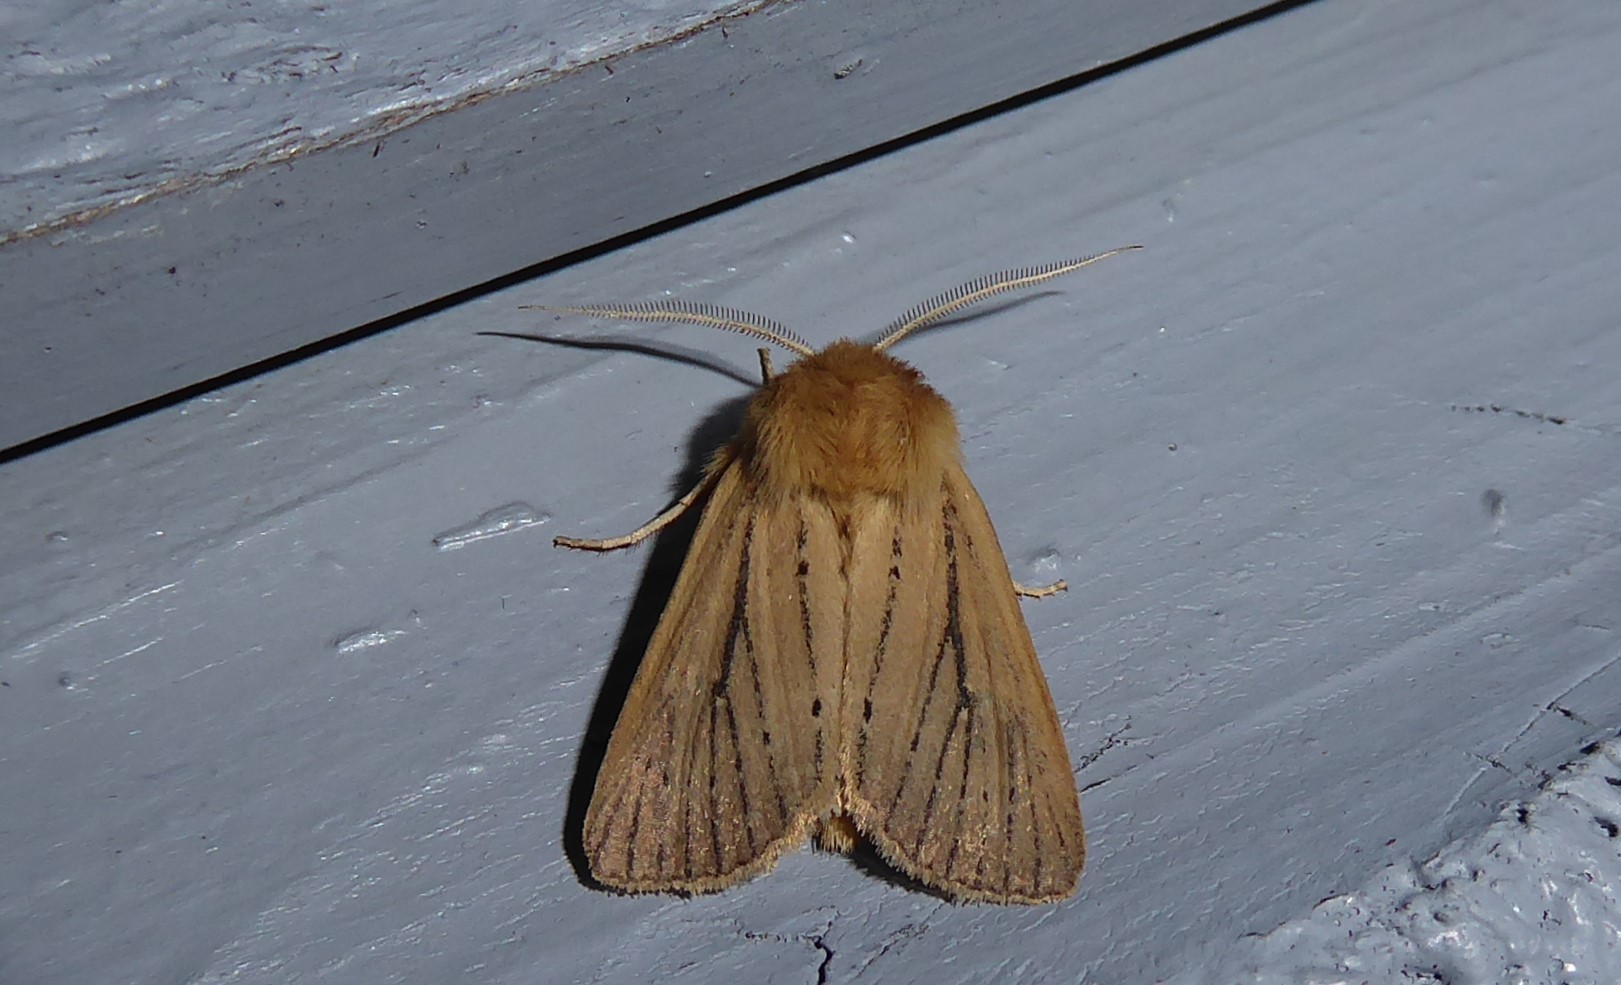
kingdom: Animalia
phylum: Arthropoda
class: Insecta
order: Lepidoptera
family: Noctuidae
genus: Ichneutica
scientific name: Ichneutica
